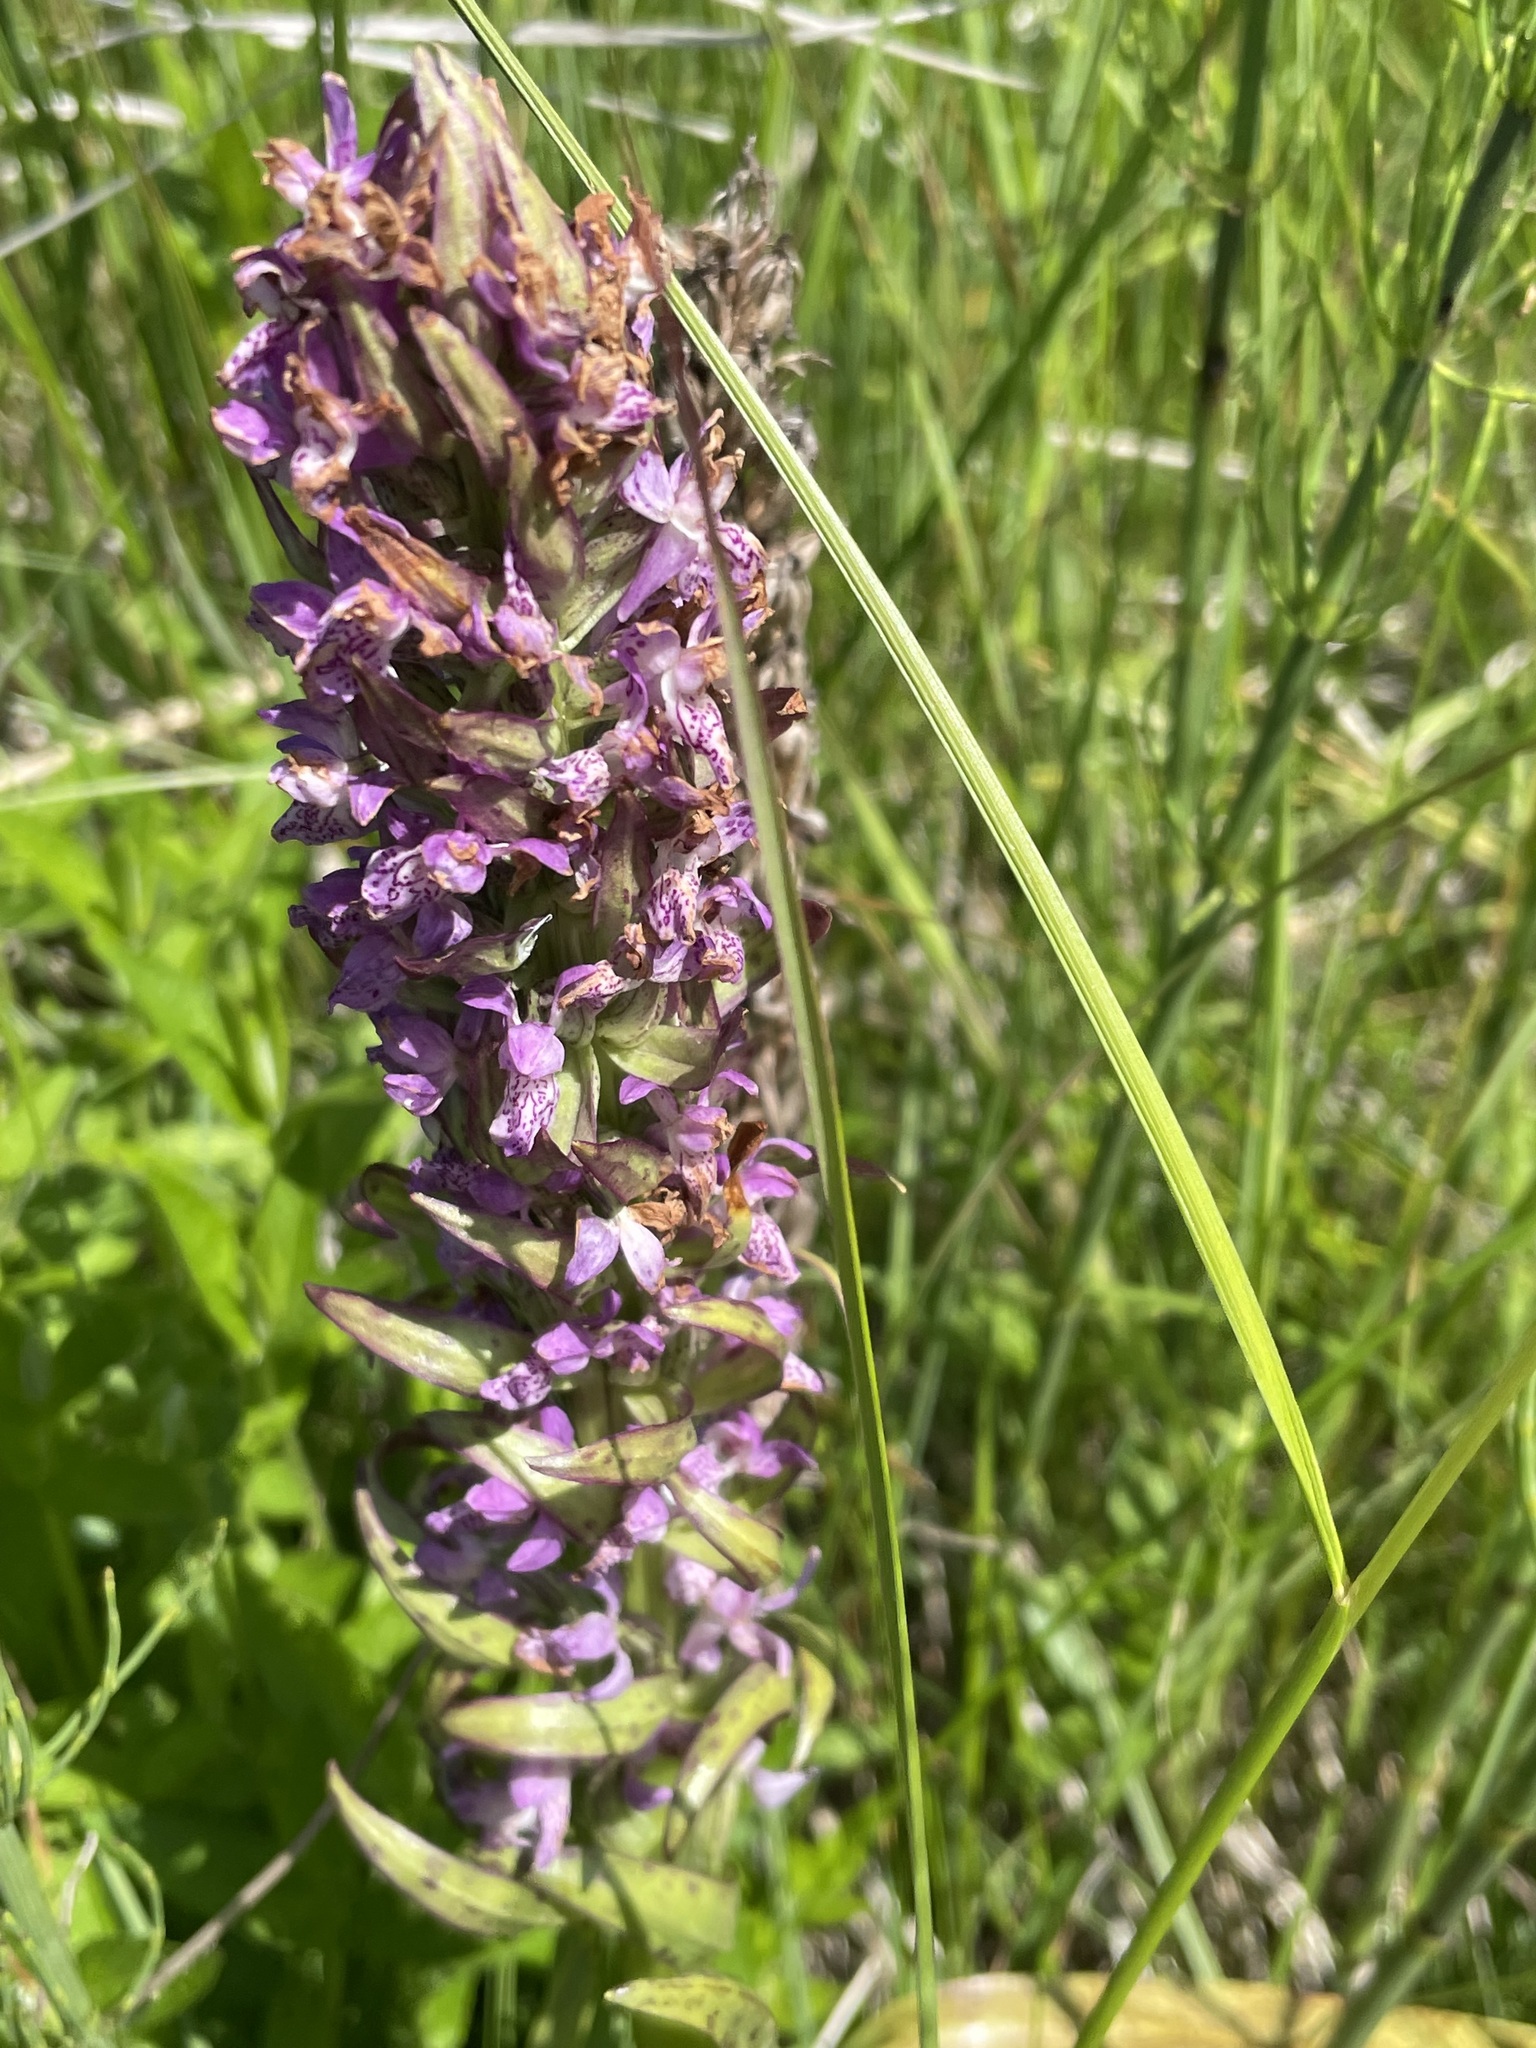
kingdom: Plantae
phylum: Tracheophyta
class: Liliopsida
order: Asparagales
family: Orchidaceae
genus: Dactylorhiza
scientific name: Dactylorhiza incarnata
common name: Early marsh-orchid
